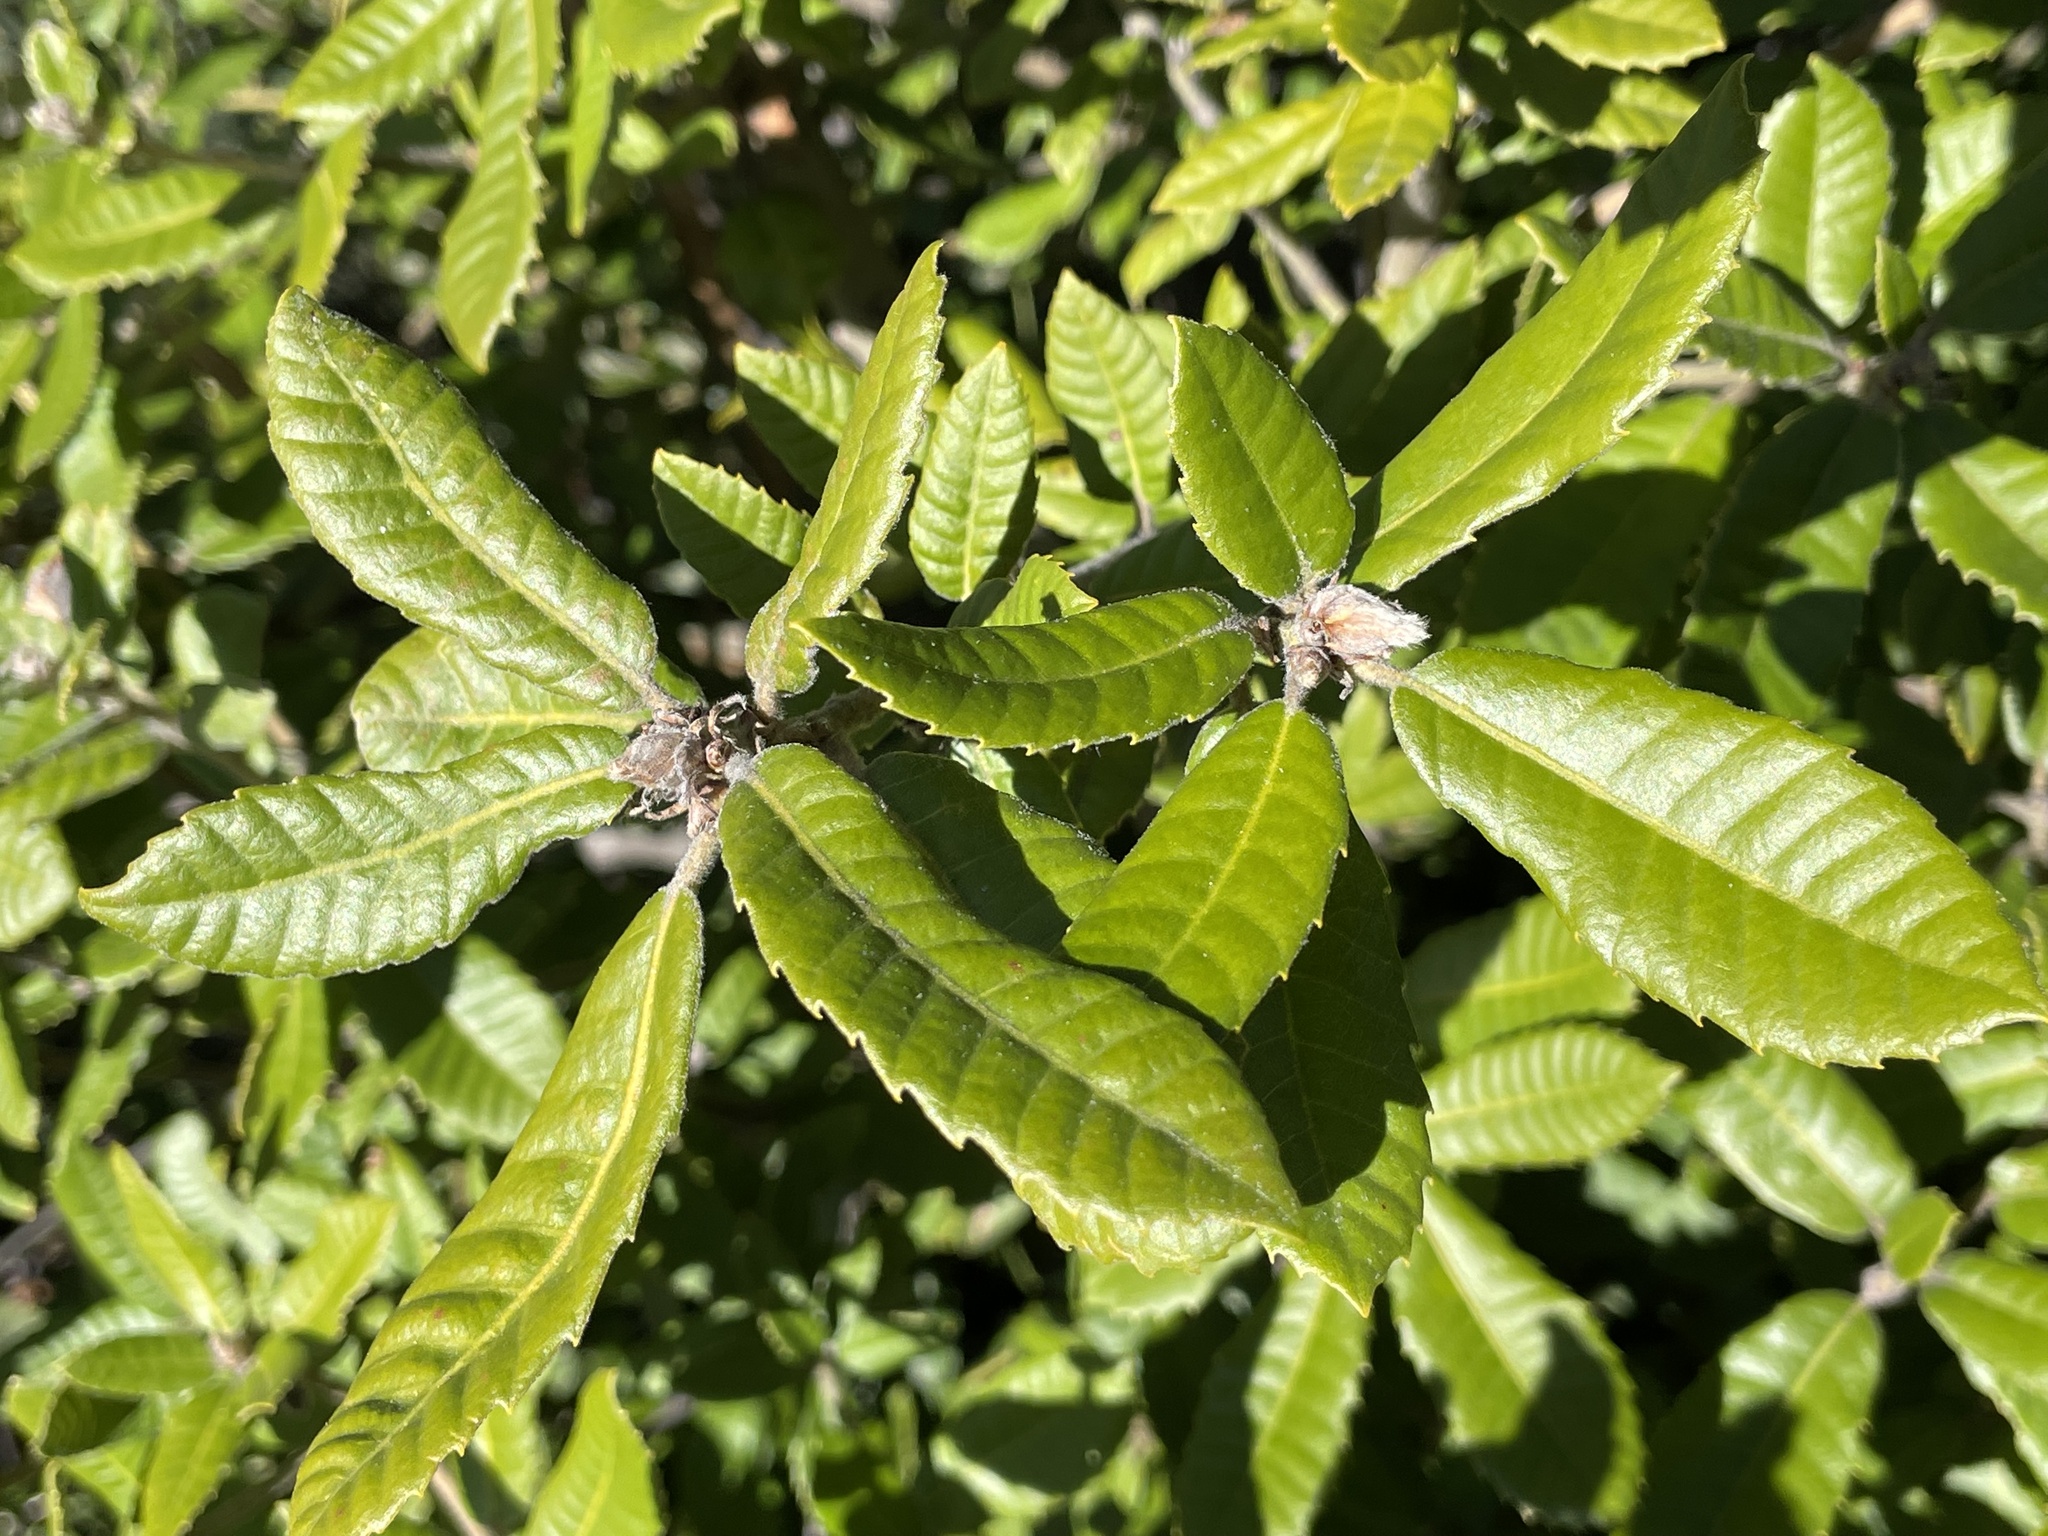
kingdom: Plantae
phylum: Tracheophyta
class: Magnoliopsida
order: Fagales
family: Fagaceae
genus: Notholithocarpus
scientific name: Notholithocarpus densiflorus
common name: Tan bark oak
